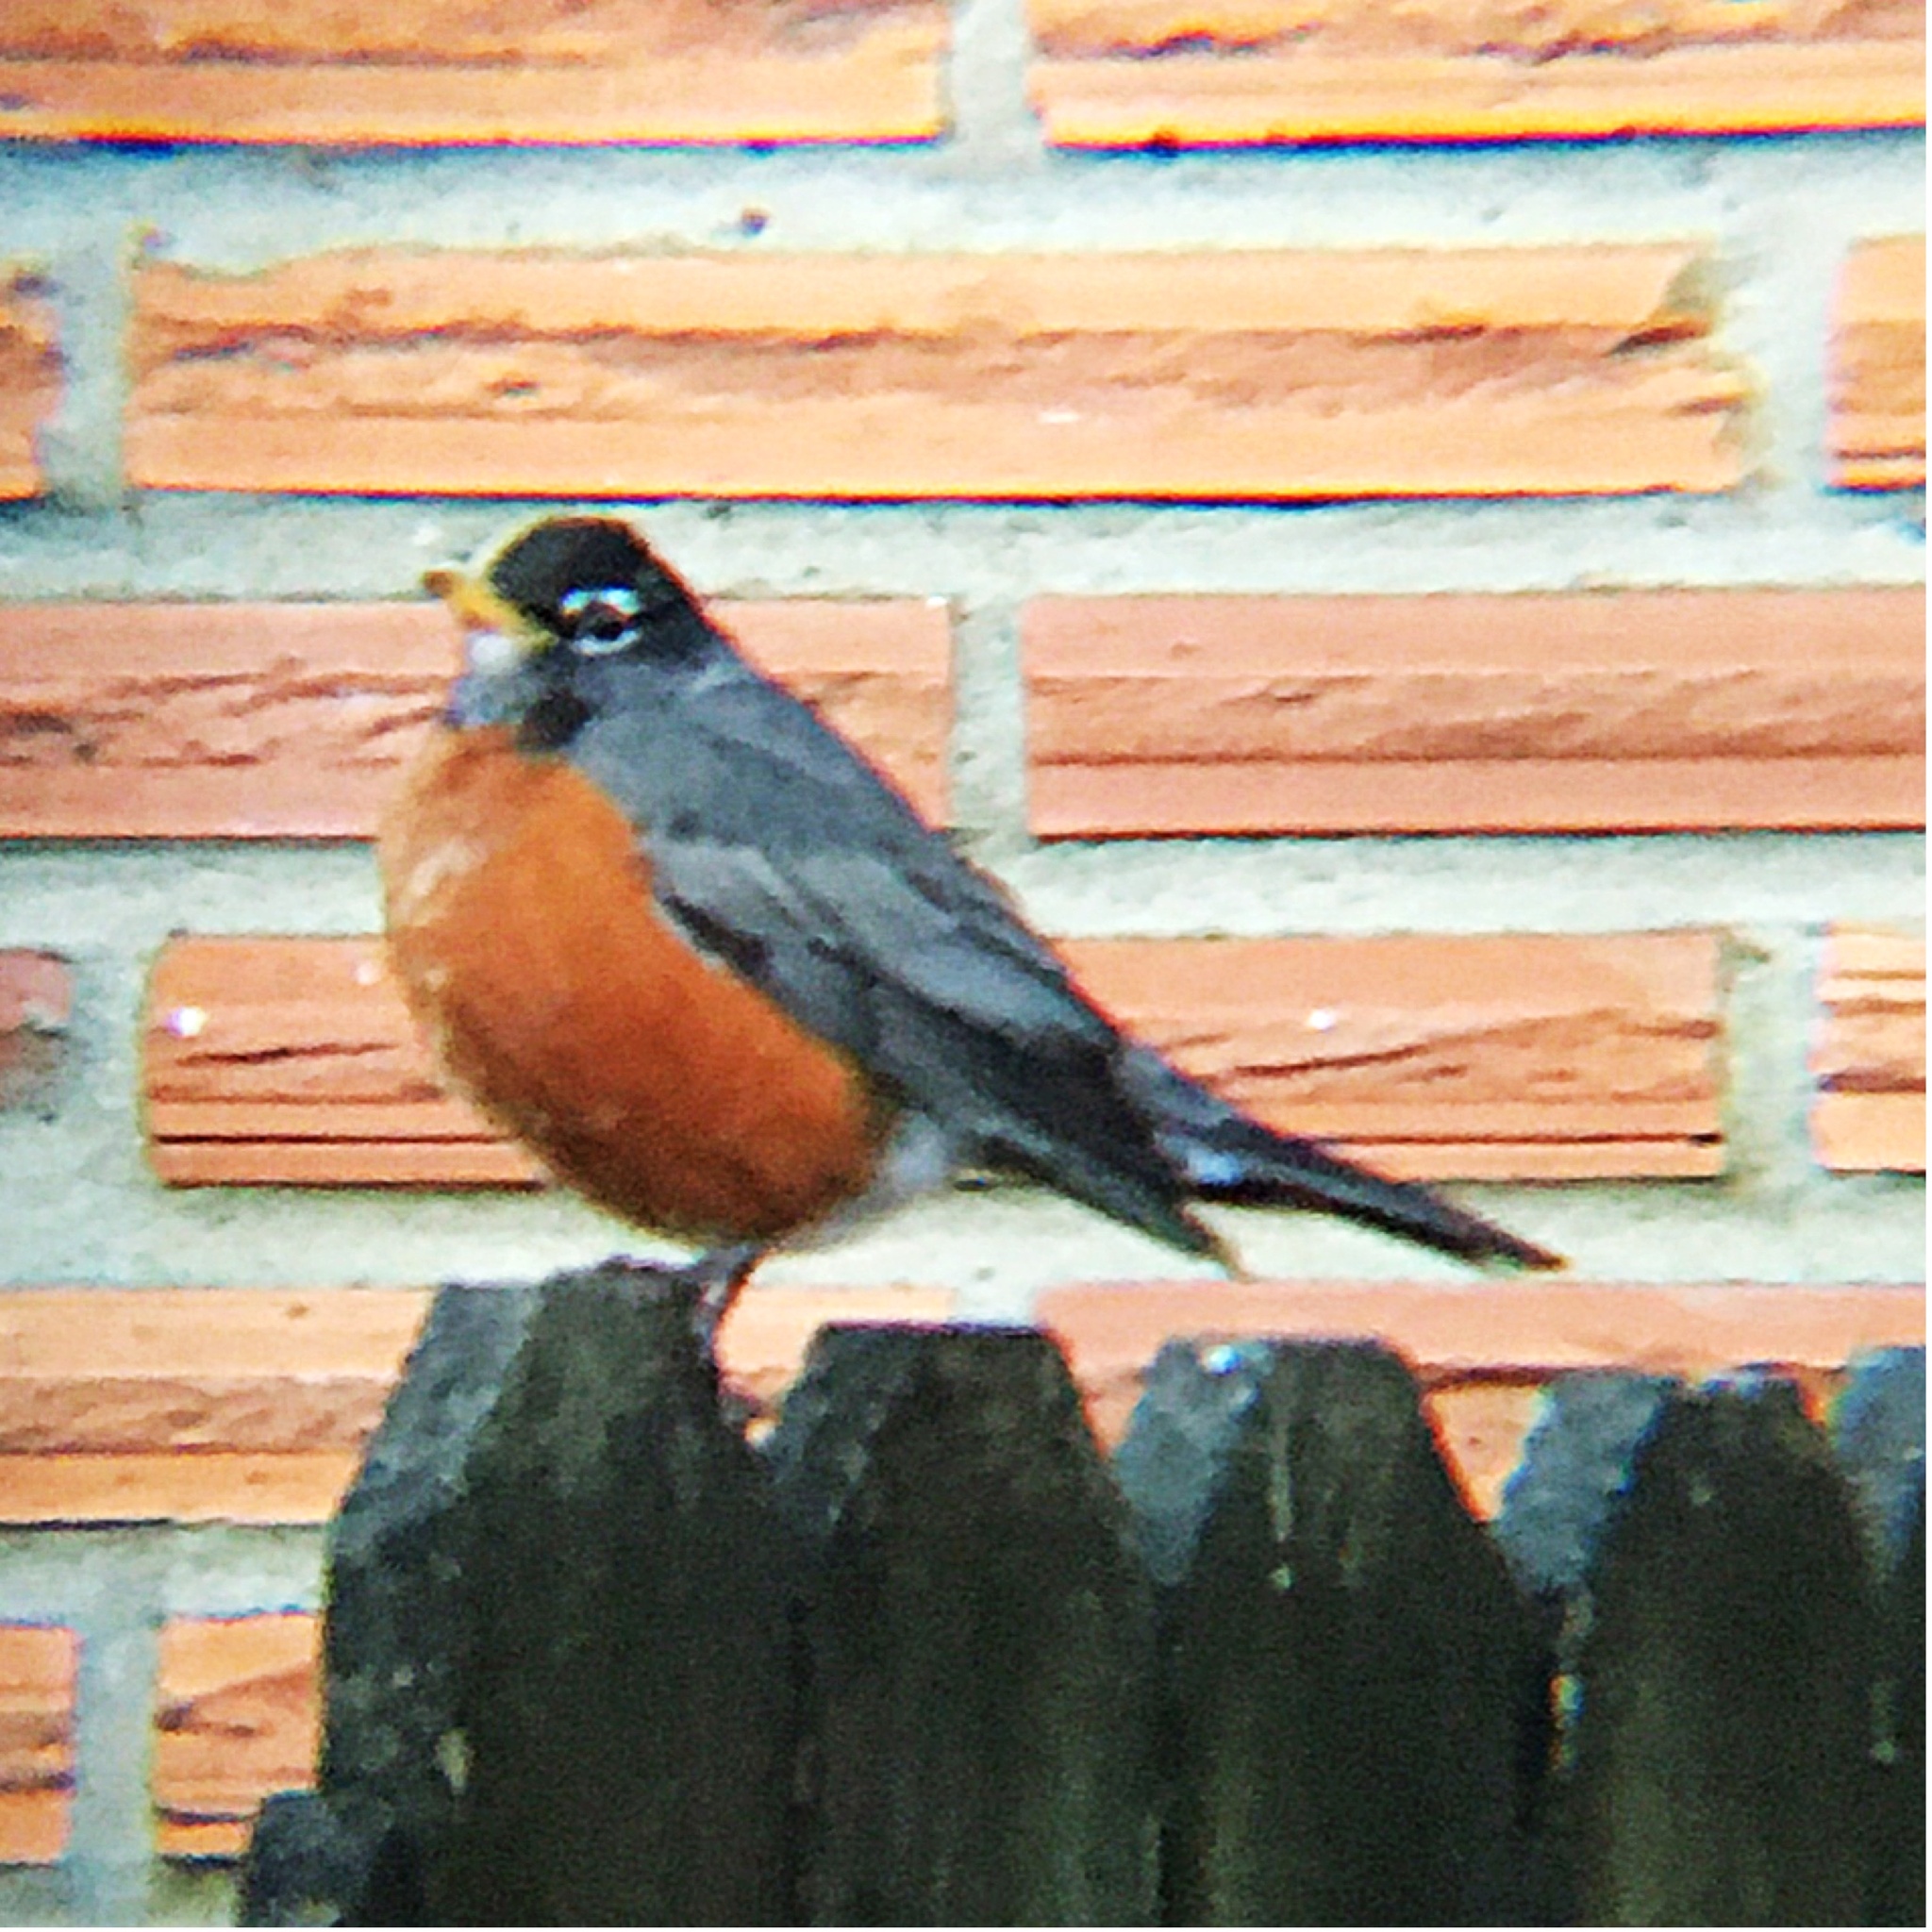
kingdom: Animalia
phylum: Chordata
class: Aves
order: Passeriformes
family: Turdidae
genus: Turdus
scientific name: Turdus migratorius
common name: American robin
